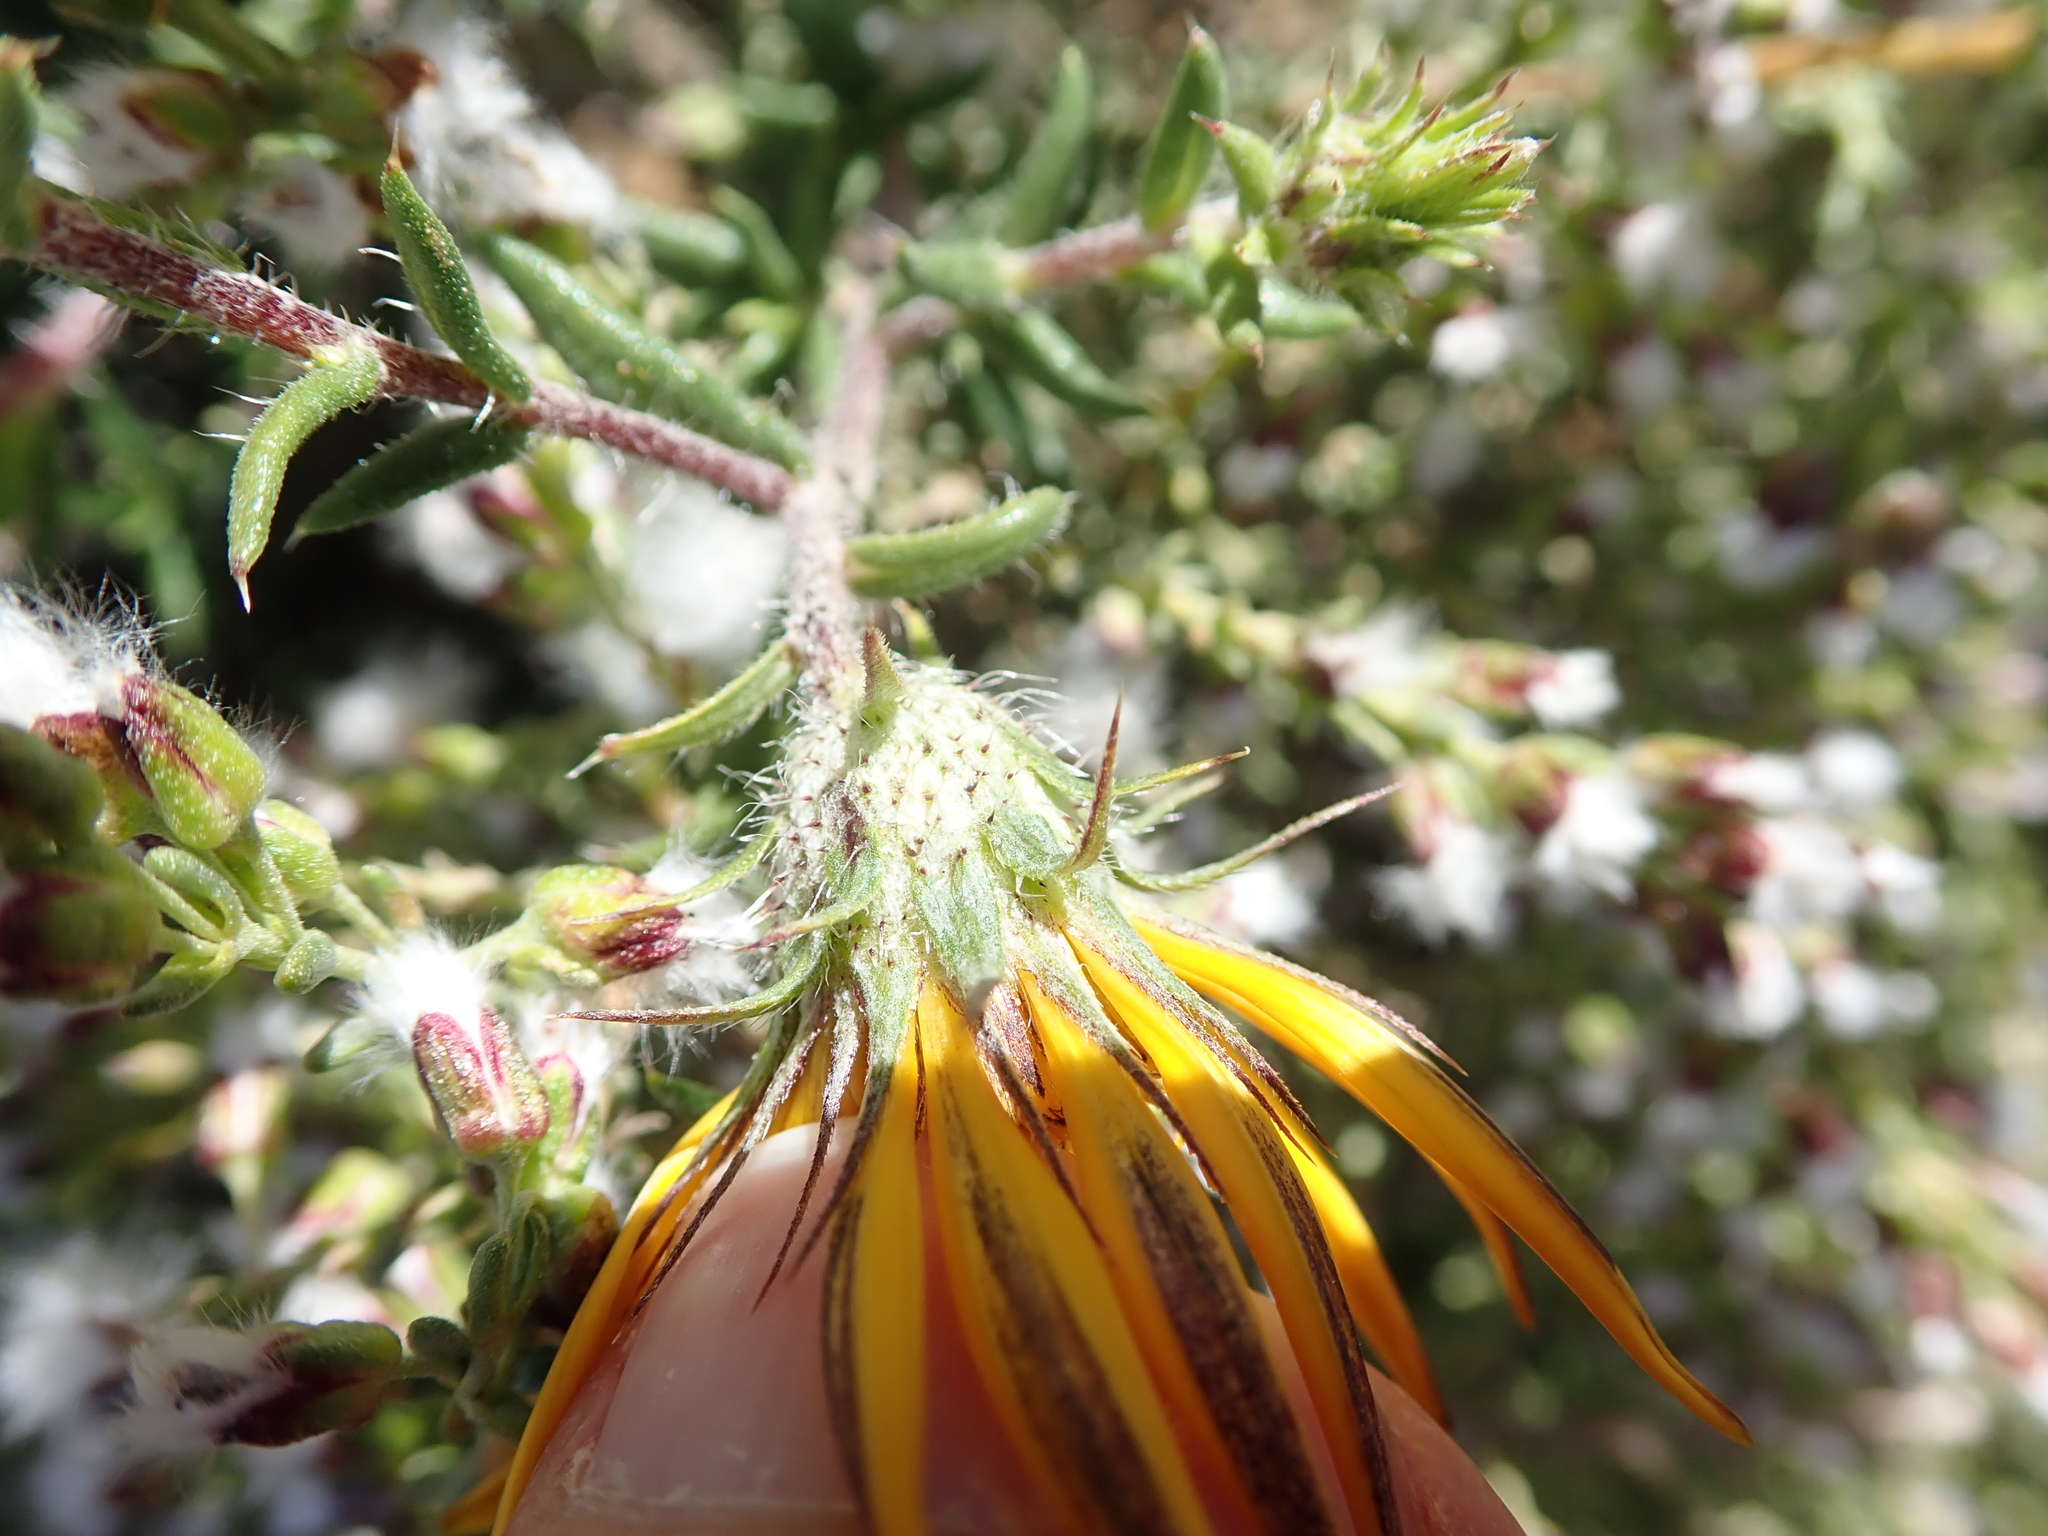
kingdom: Plantae
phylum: Tracheophyta
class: Magnoliopsida
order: Asterales
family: Asteraceae
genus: Gorteria
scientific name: Gorteria alienata
